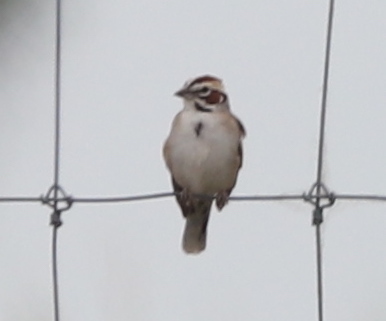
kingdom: Animalia
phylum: Chordata
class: Aves
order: Passeriformes
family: Passerellidae
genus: Chondestes
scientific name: Chondestes grammacus
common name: Lark sparrow
